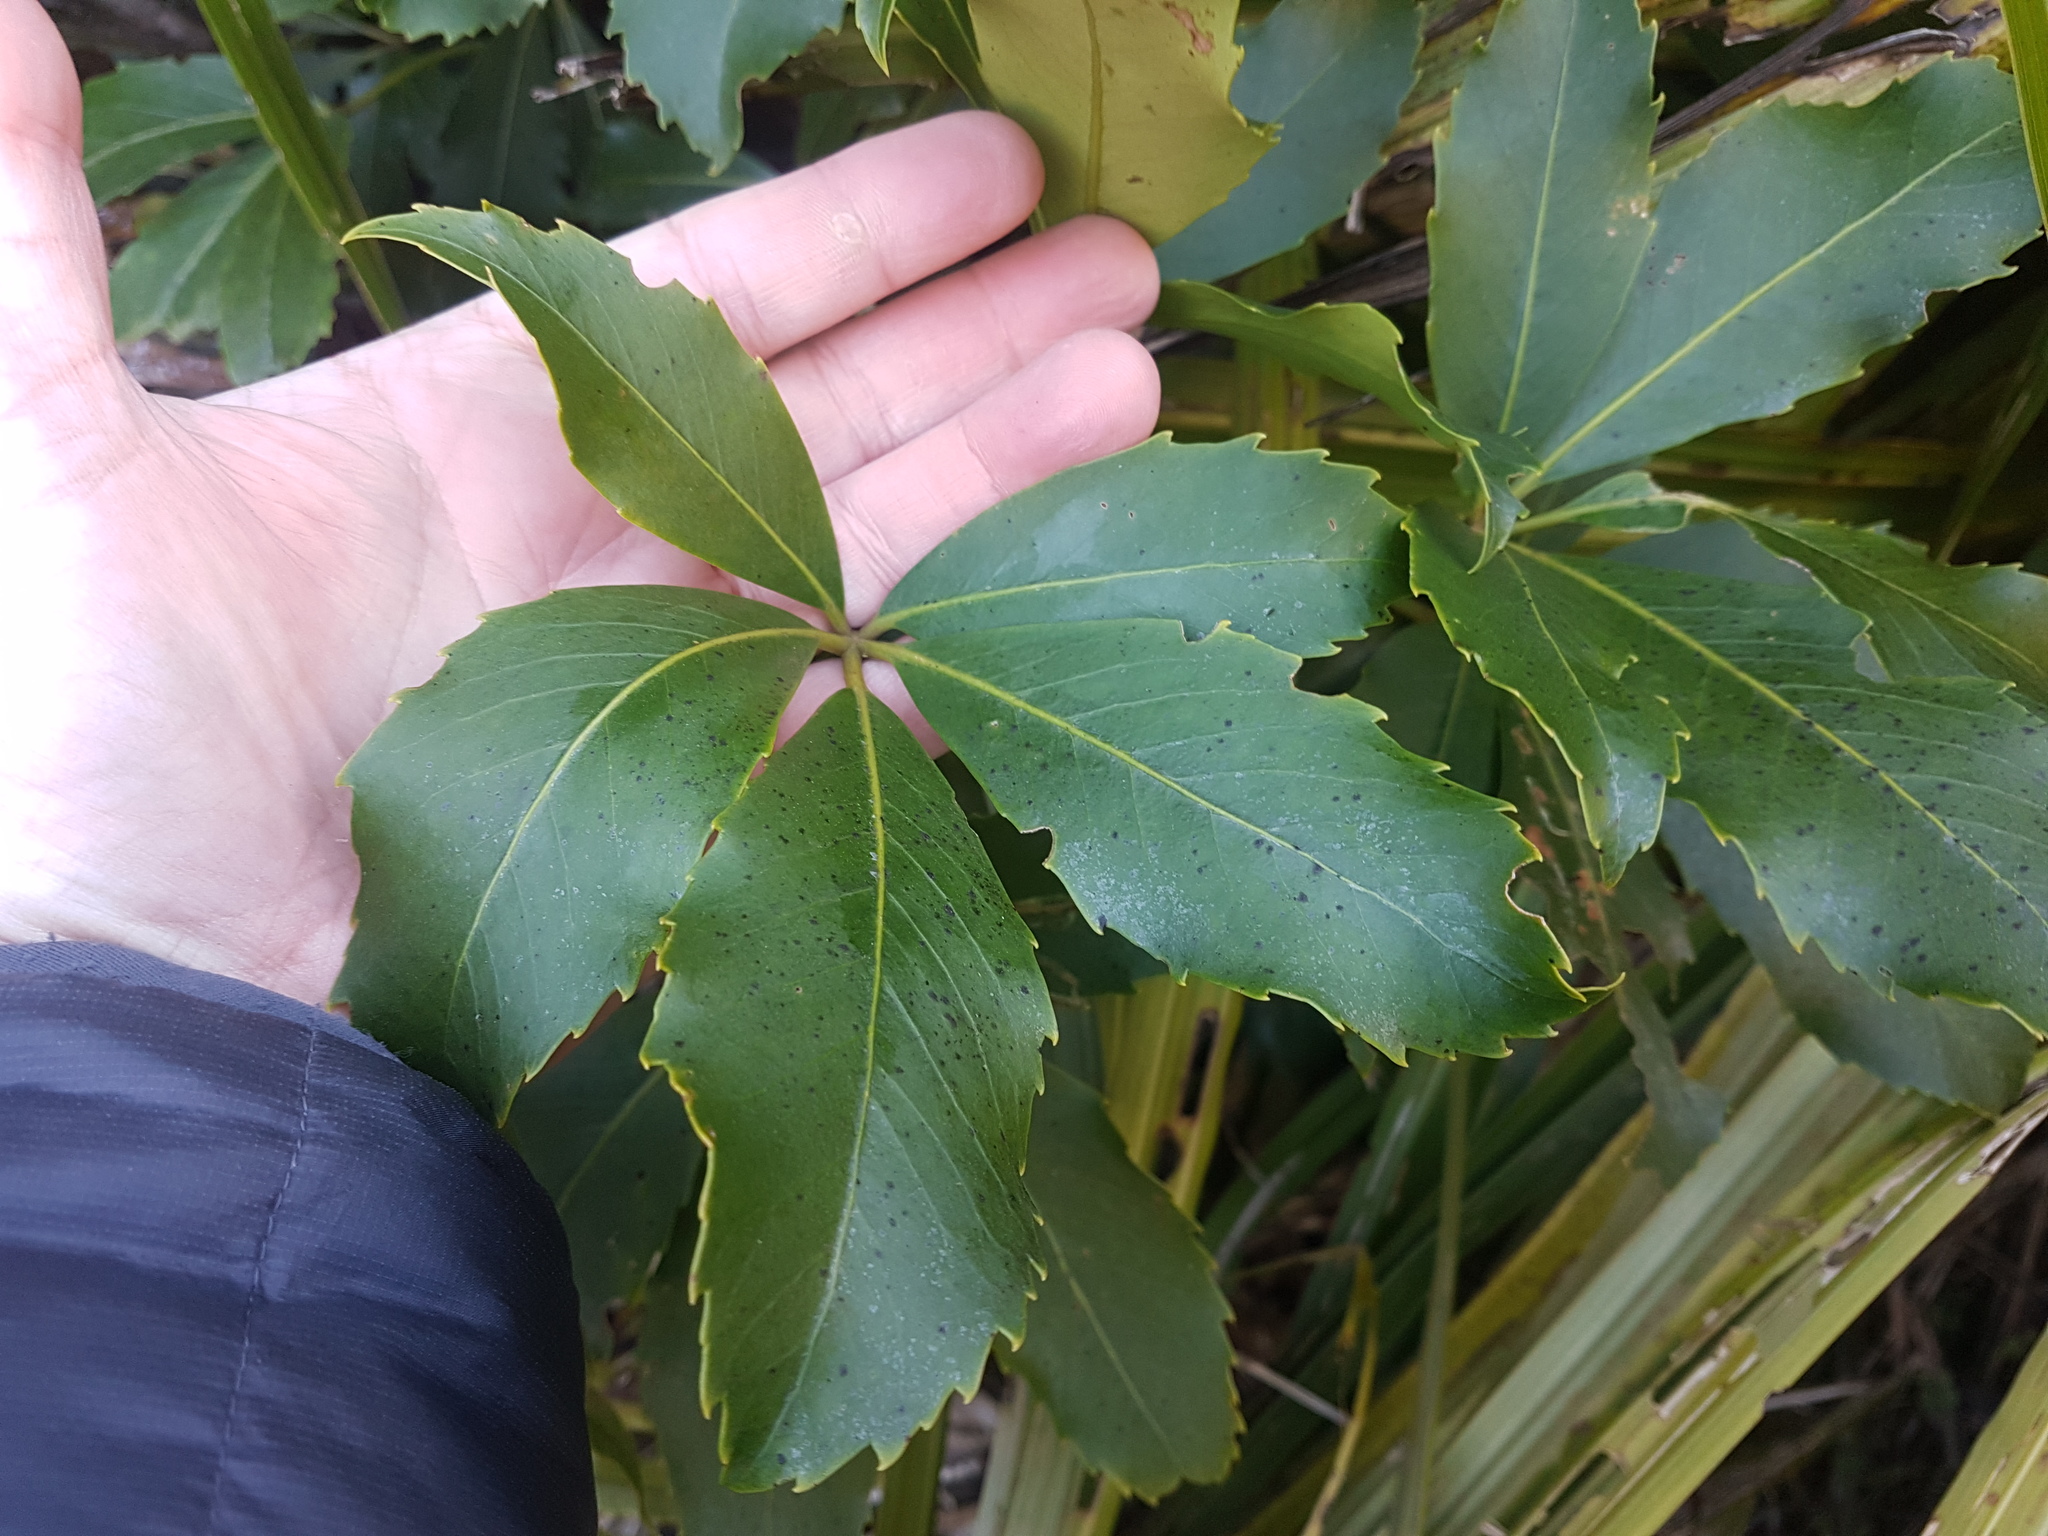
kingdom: Plantae
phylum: Tracheophyta
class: Magnoliopsida
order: Apiales
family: Araliaceae
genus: Neopanax
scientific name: Neopanax colensoi
